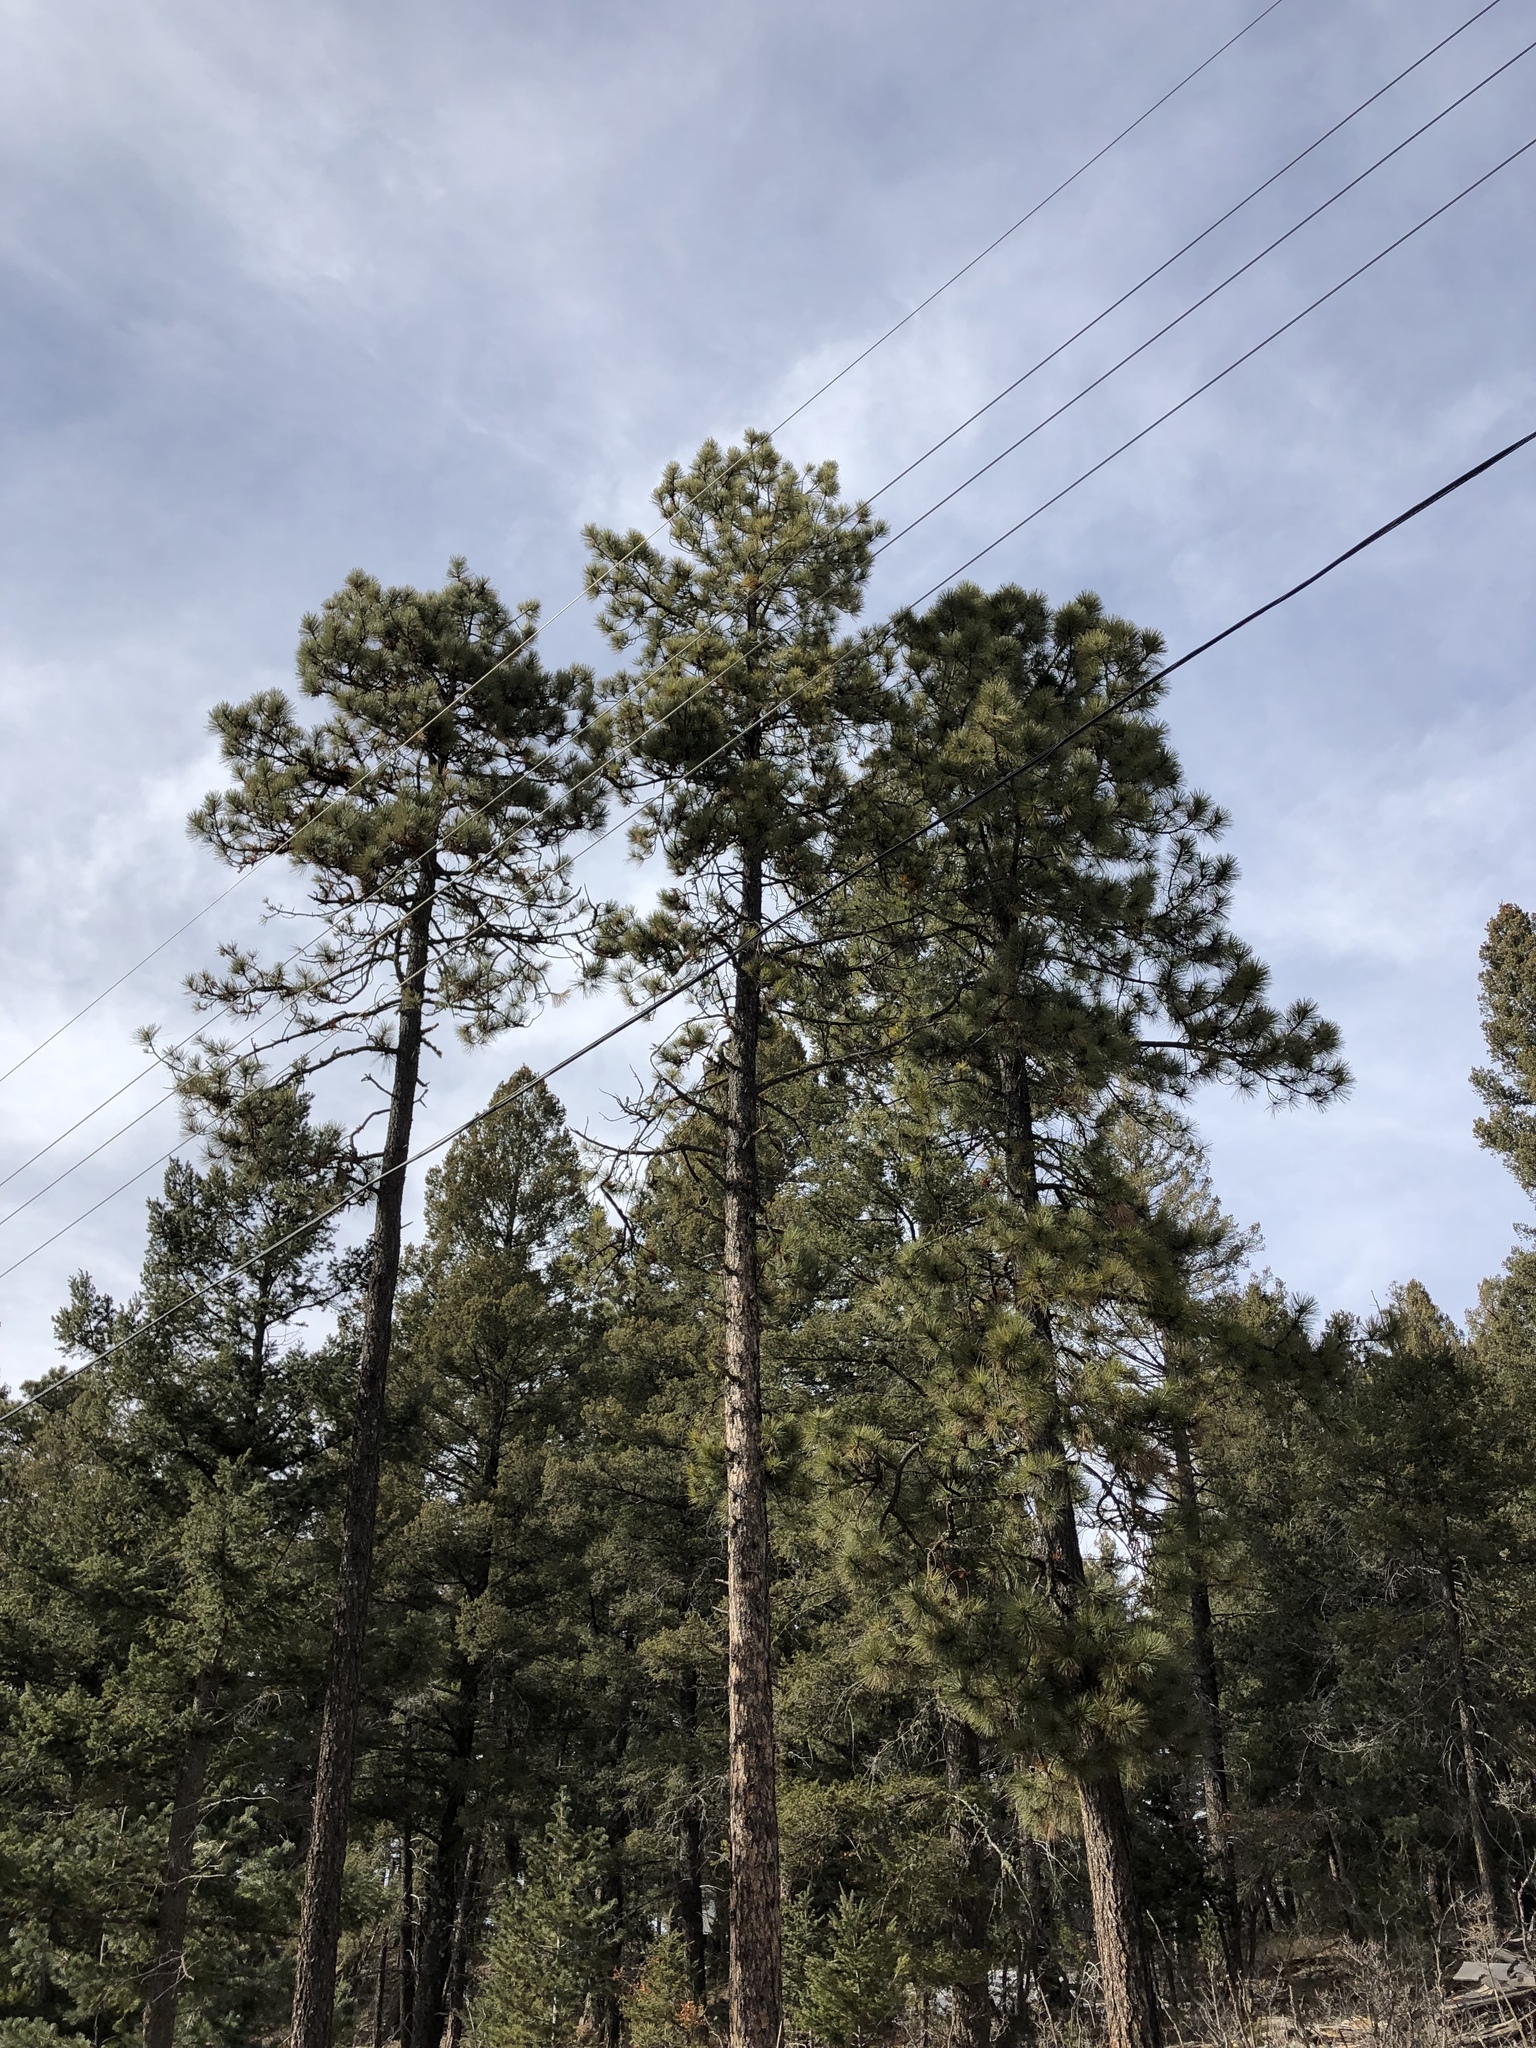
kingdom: Plantae
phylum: Tracheophyta
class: Pinopsida
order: Pinales
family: Pinaceae
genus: Pinus
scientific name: Pinus ponderosa
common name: Western yellow-pine
